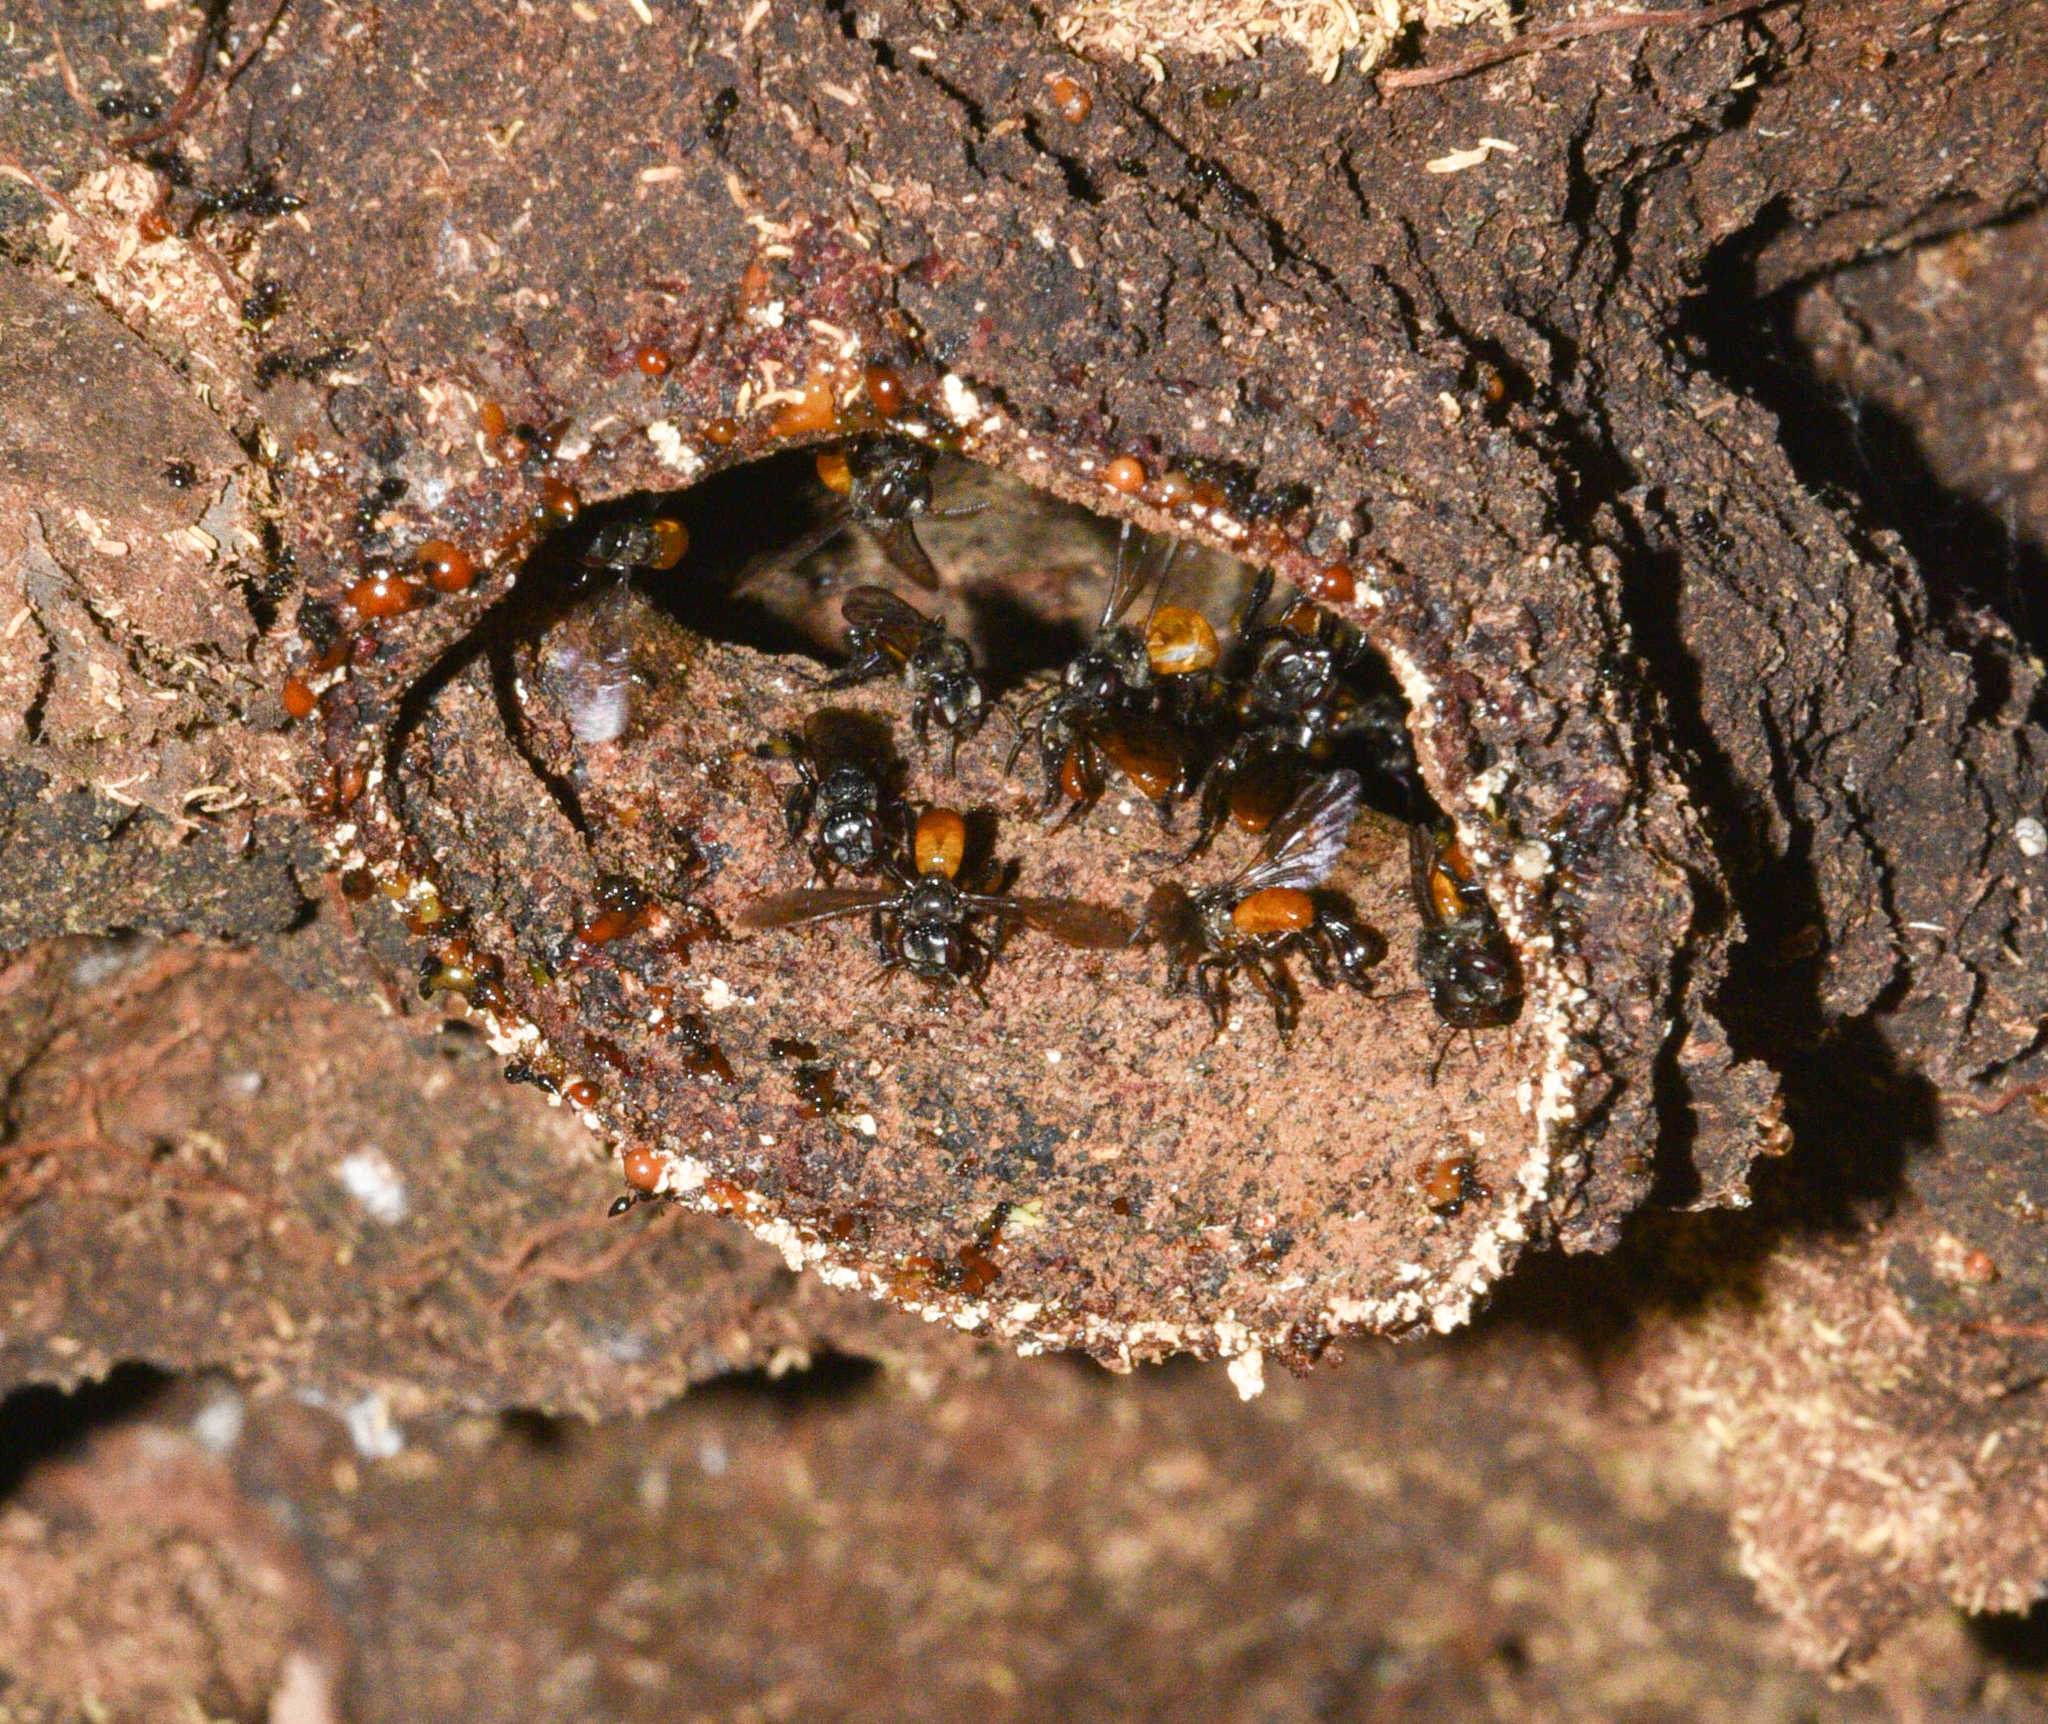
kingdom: Animalia
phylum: Arthropoda
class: Insecta
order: Hymenoptera
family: Apidae
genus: Trigona
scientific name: Trigona fulviventris
